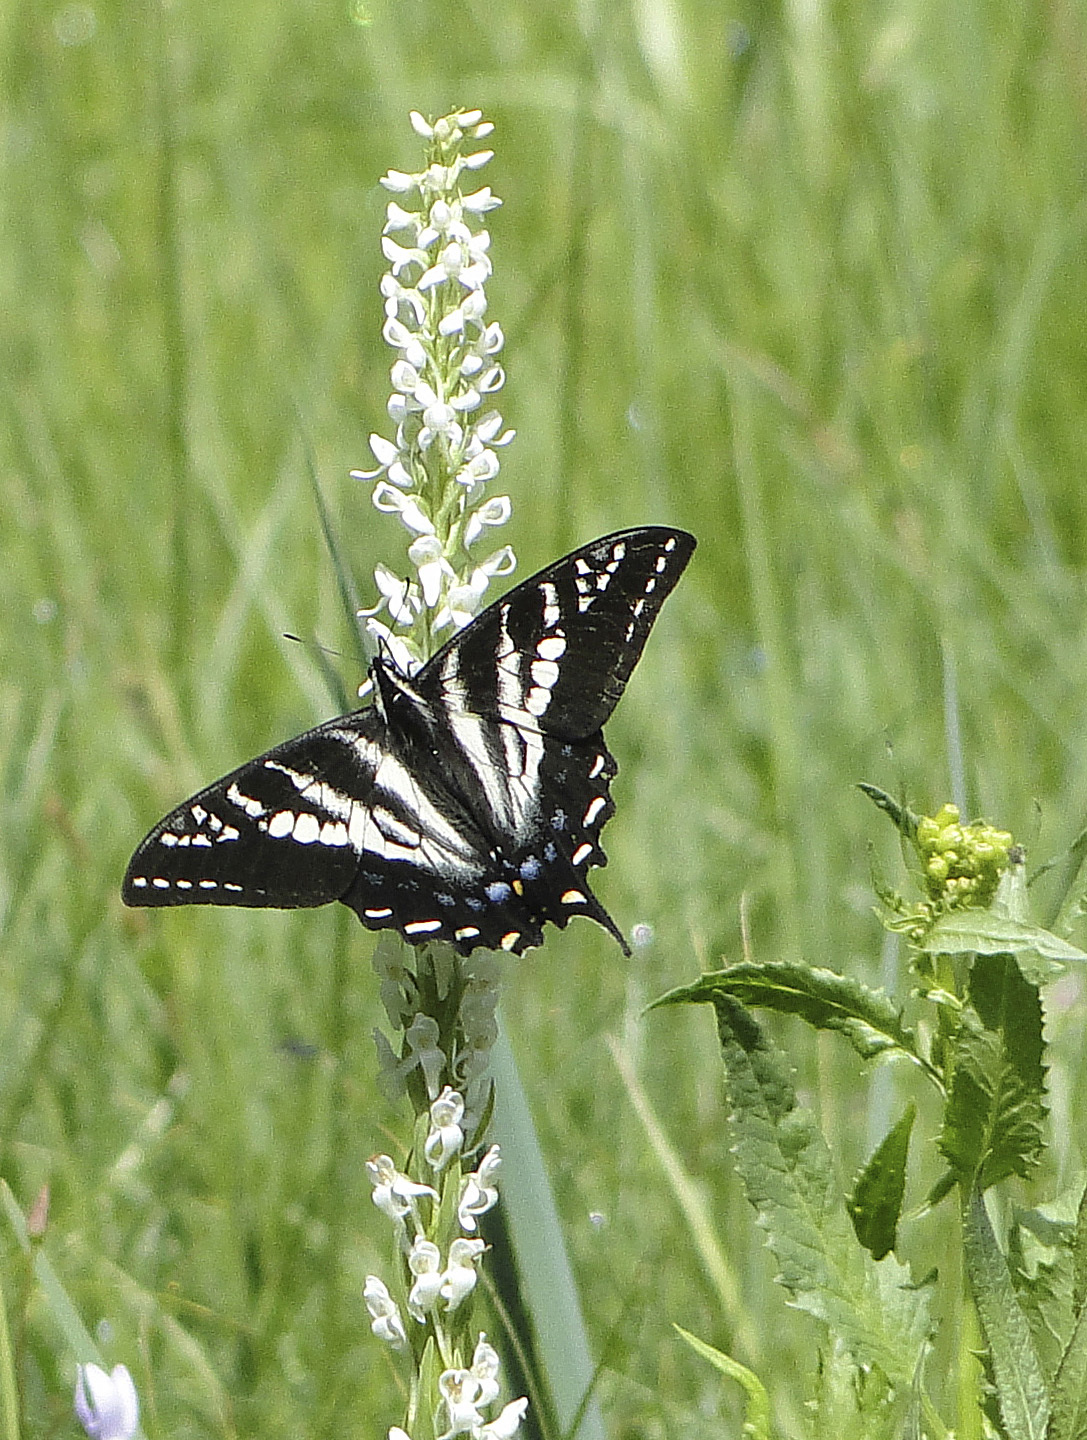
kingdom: Animalia
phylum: Arthropoda
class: Insecta
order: Lepidoptera
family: Papilionidae
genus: Papilio
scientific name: Papilio eurymedon
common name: Pale tiger swallowtail
